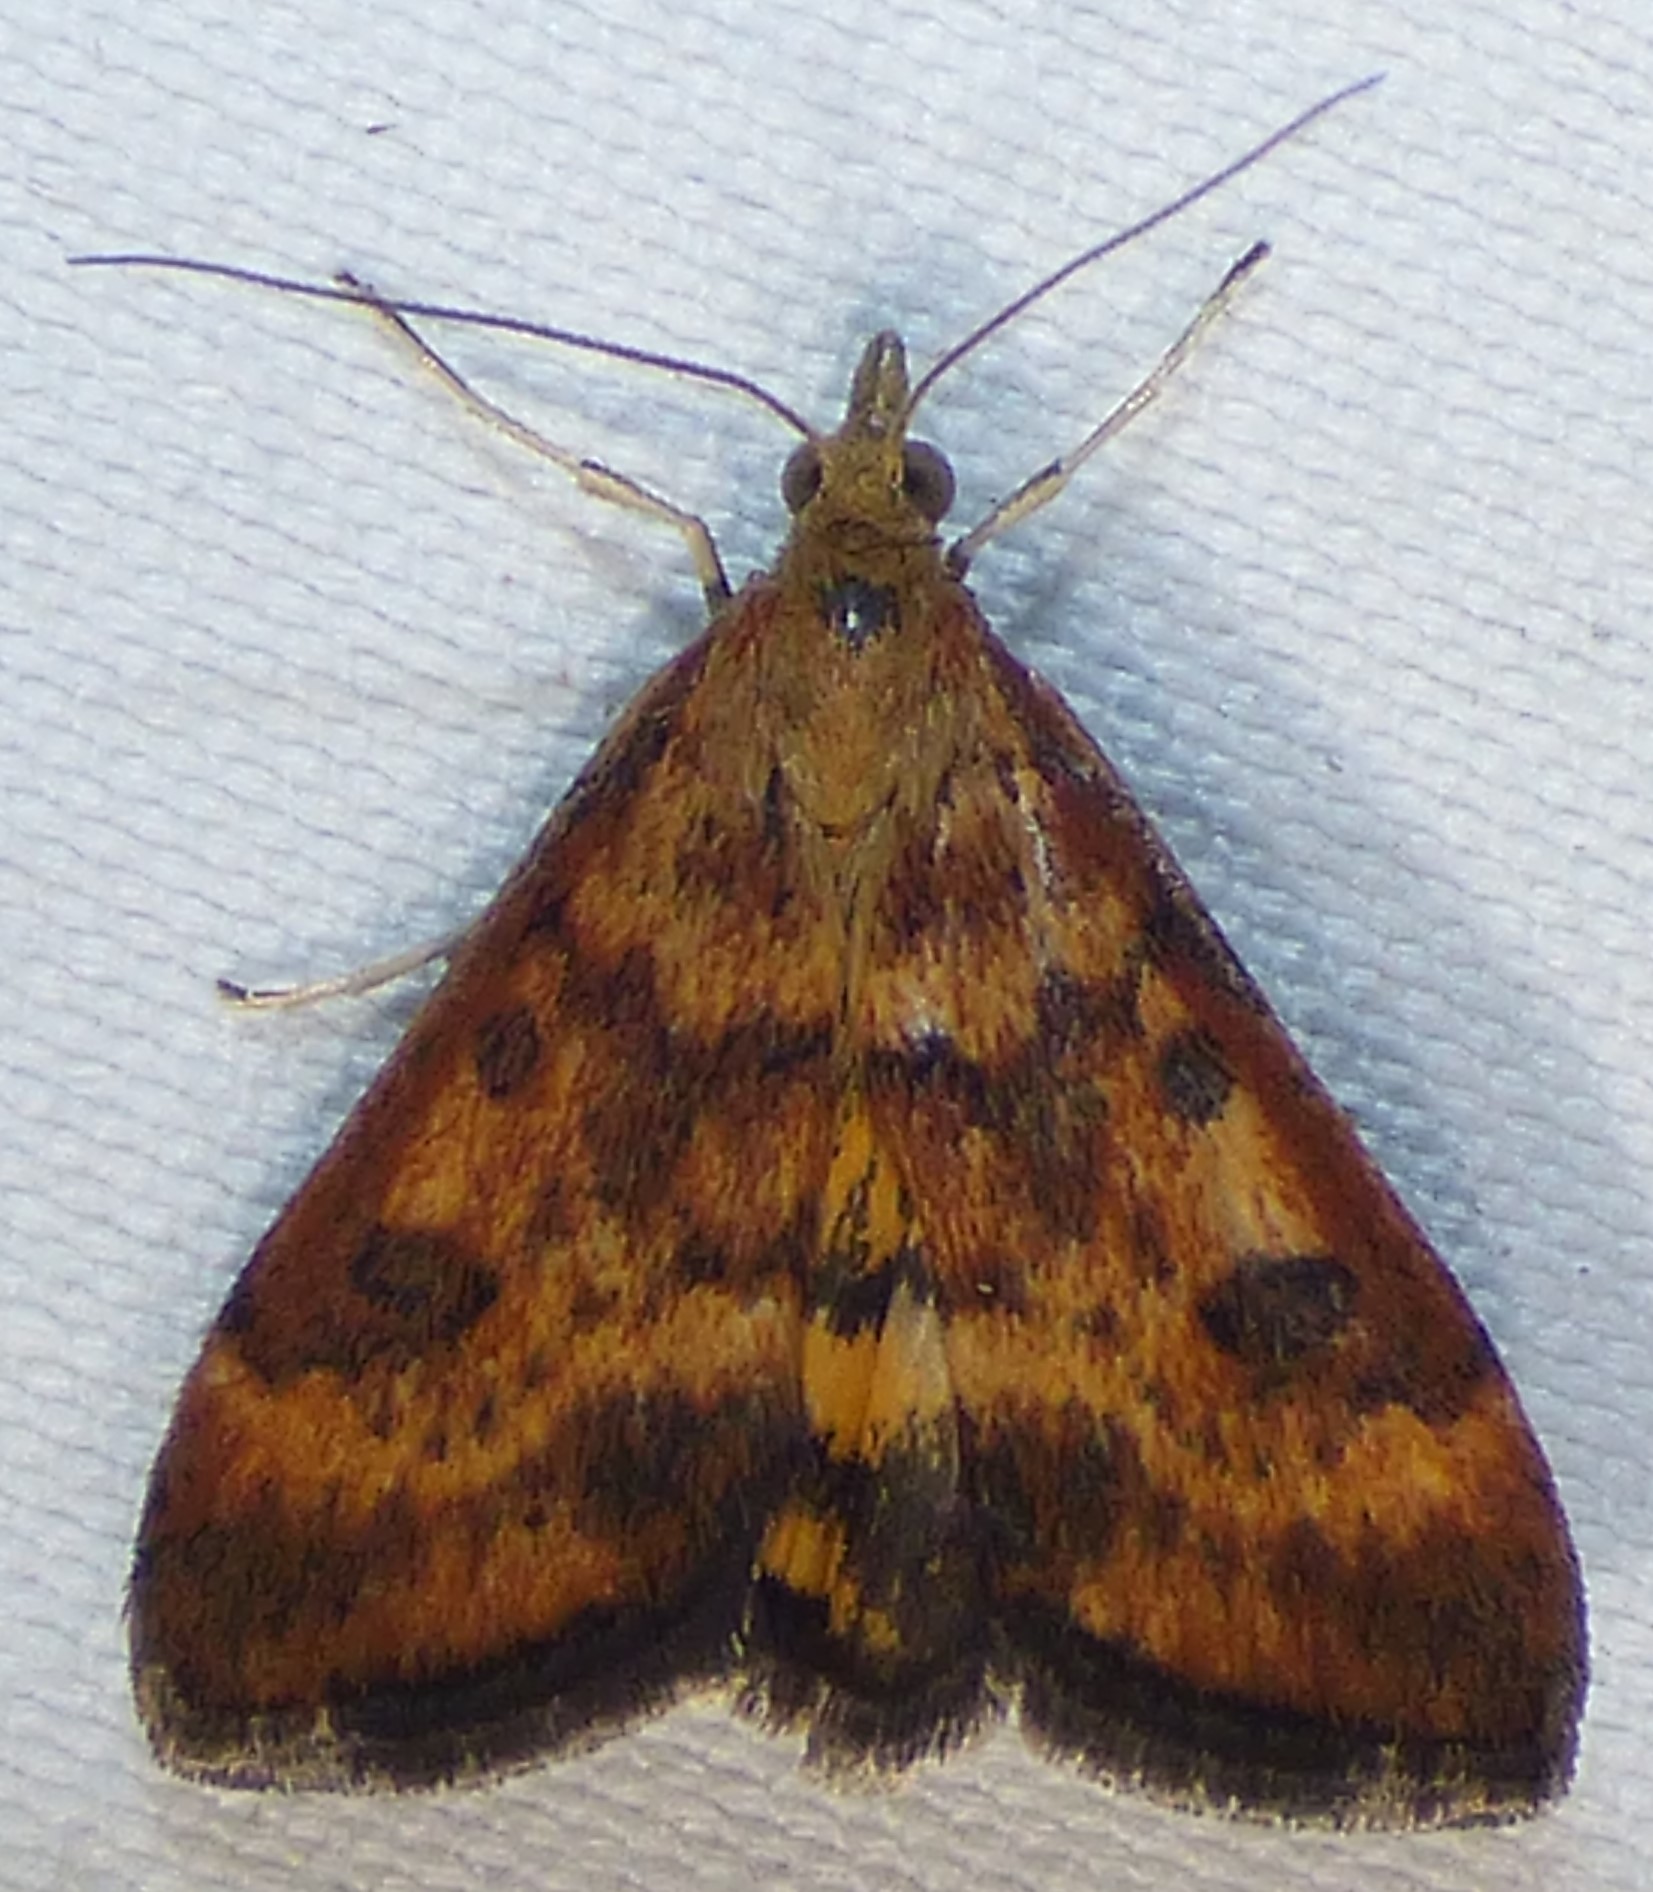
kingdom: Animalia
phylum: Arthropoda
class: Insecta
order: Lepidoptera
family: Crambidae
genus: Pyrausta
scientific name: Pyrausta subsequalis
